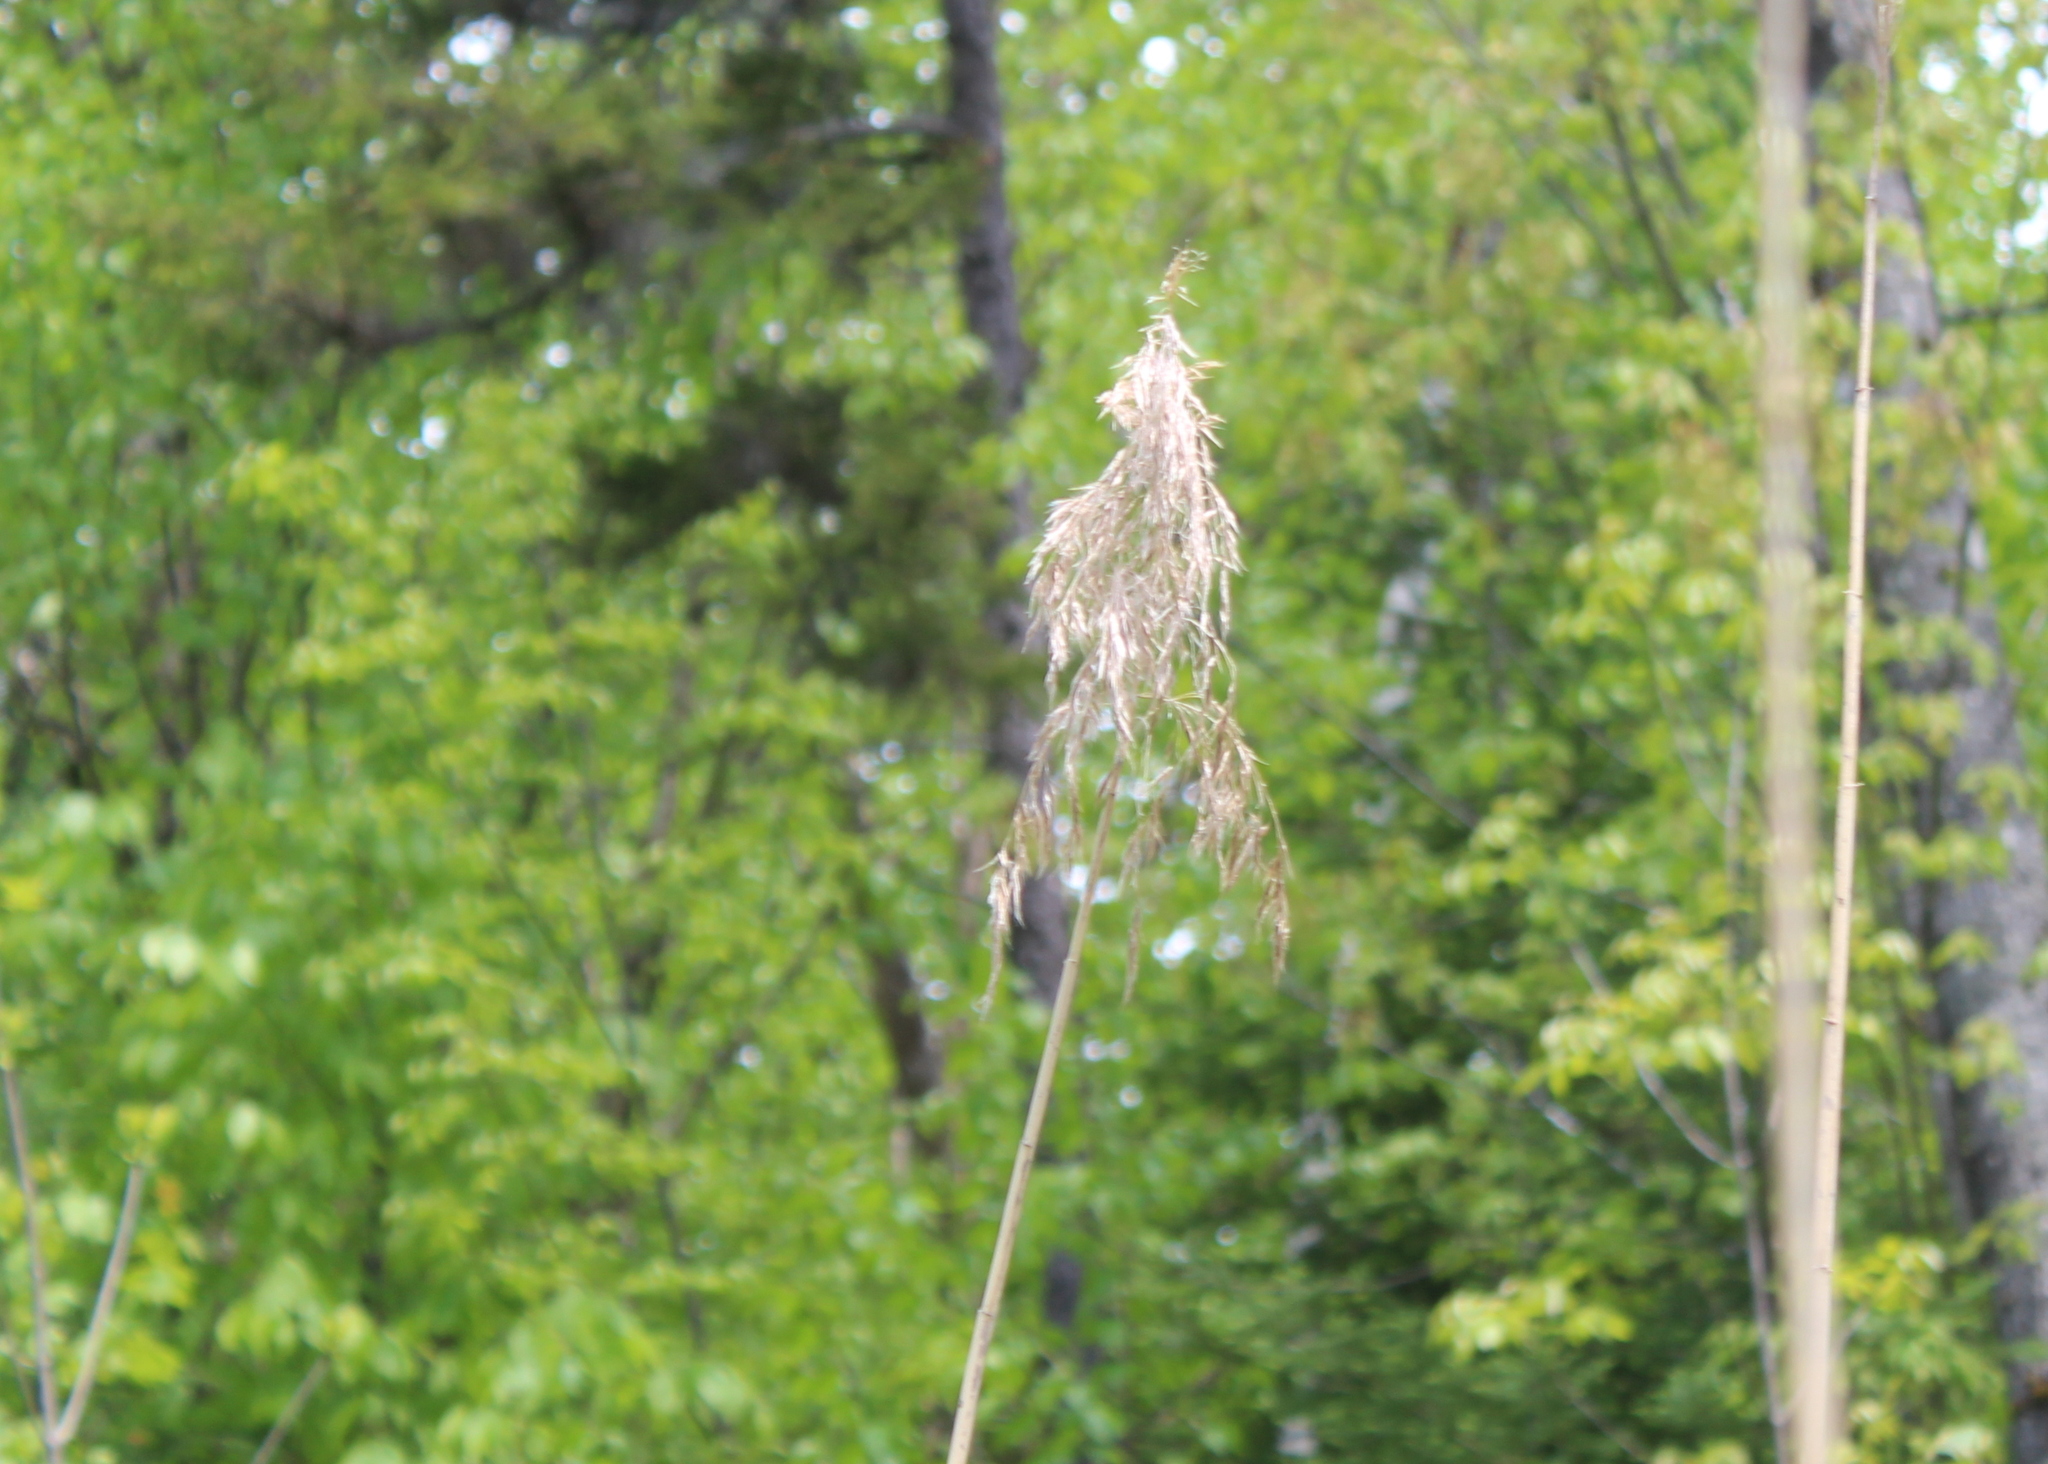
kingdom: Plantae
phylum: Tracheophyta
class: Liliopsida
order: Poales
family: Poaceae
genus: Phragmites
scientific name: Phragmites australis
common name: Common reed
